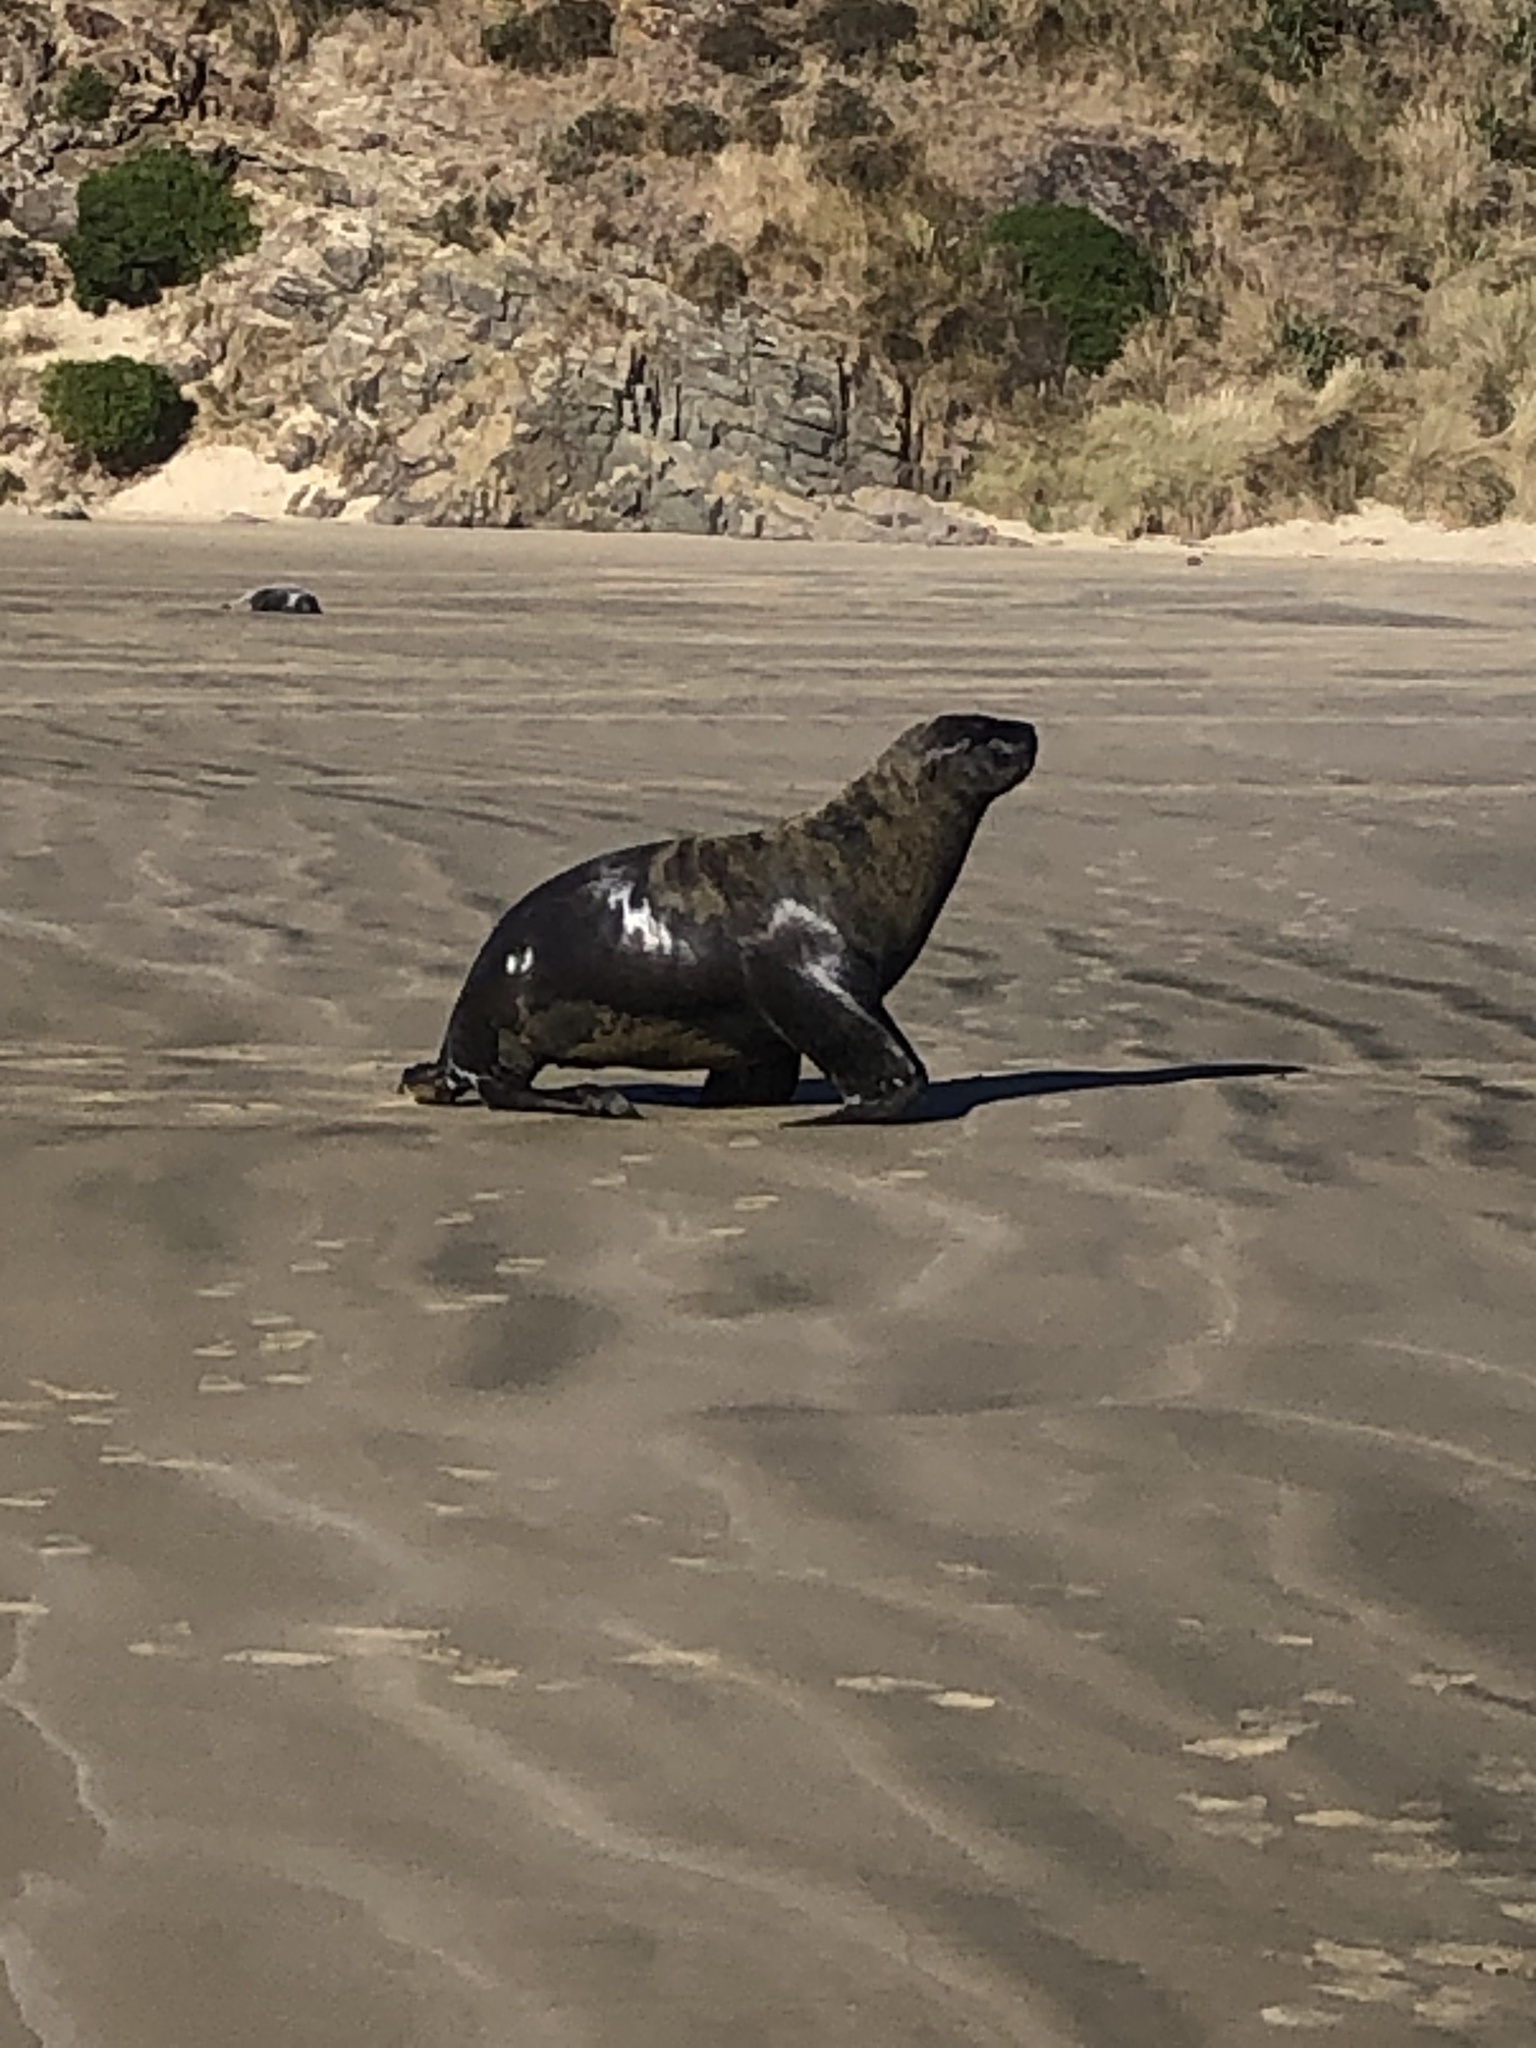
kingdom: Animalia
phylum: Chordata
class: Mammalia
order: Carnivora
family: Otariidae
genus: Phocarctos
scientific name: Phocarctos hookeri
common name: New zealand sea lion
